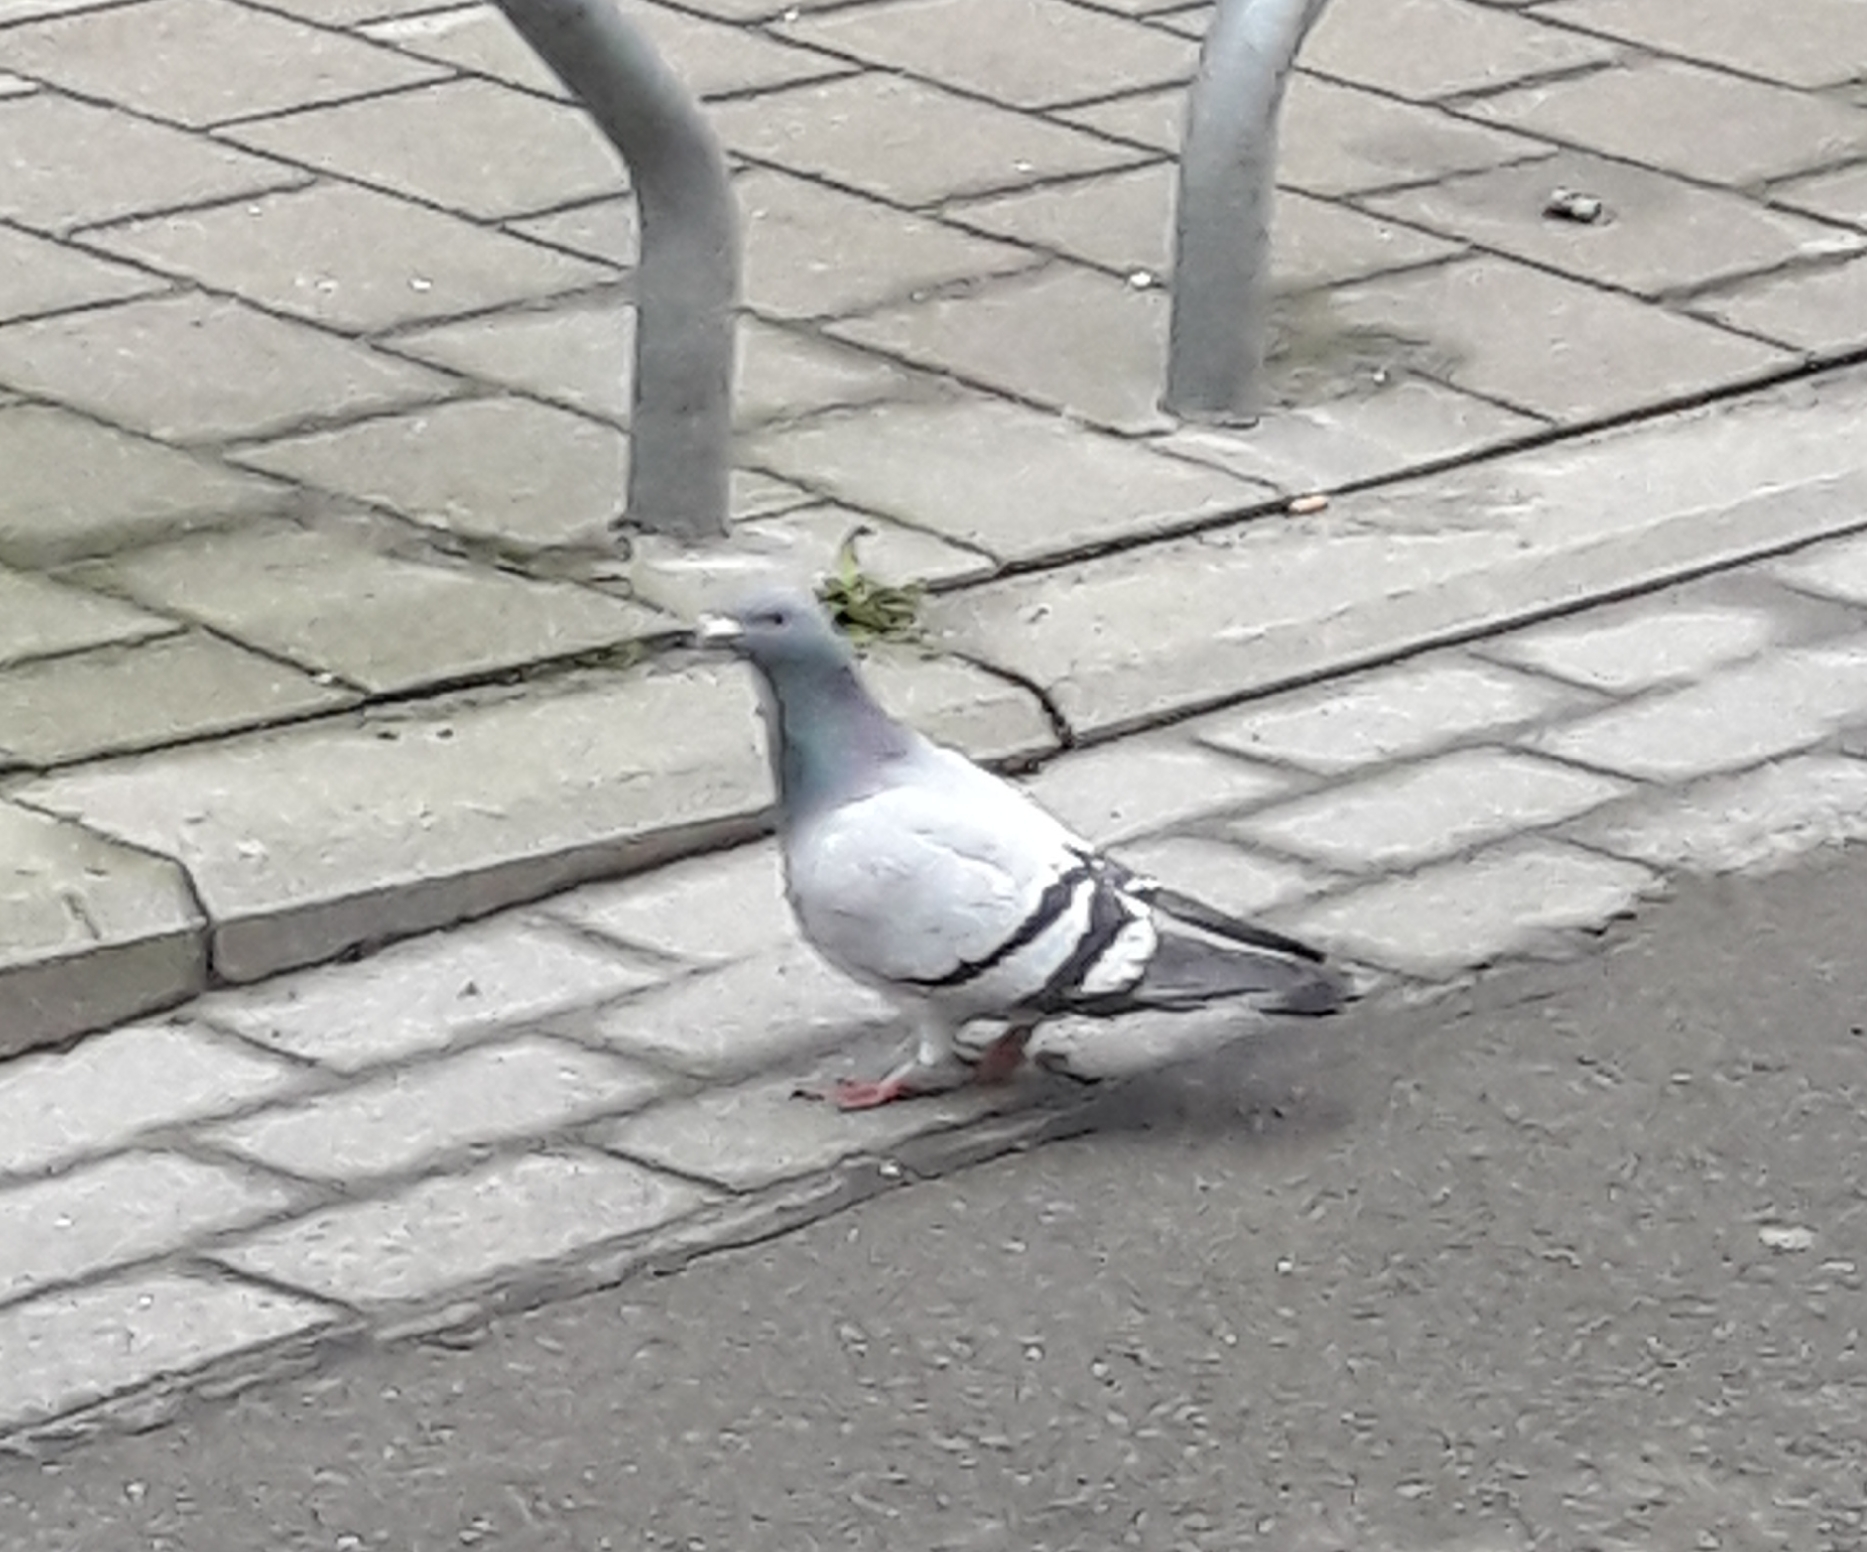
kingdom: Animalia
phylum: Chordata
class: Aves
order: Columbiformes
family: Columbidae
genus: Columba
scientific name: Columba livia
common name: Rock pigeon
